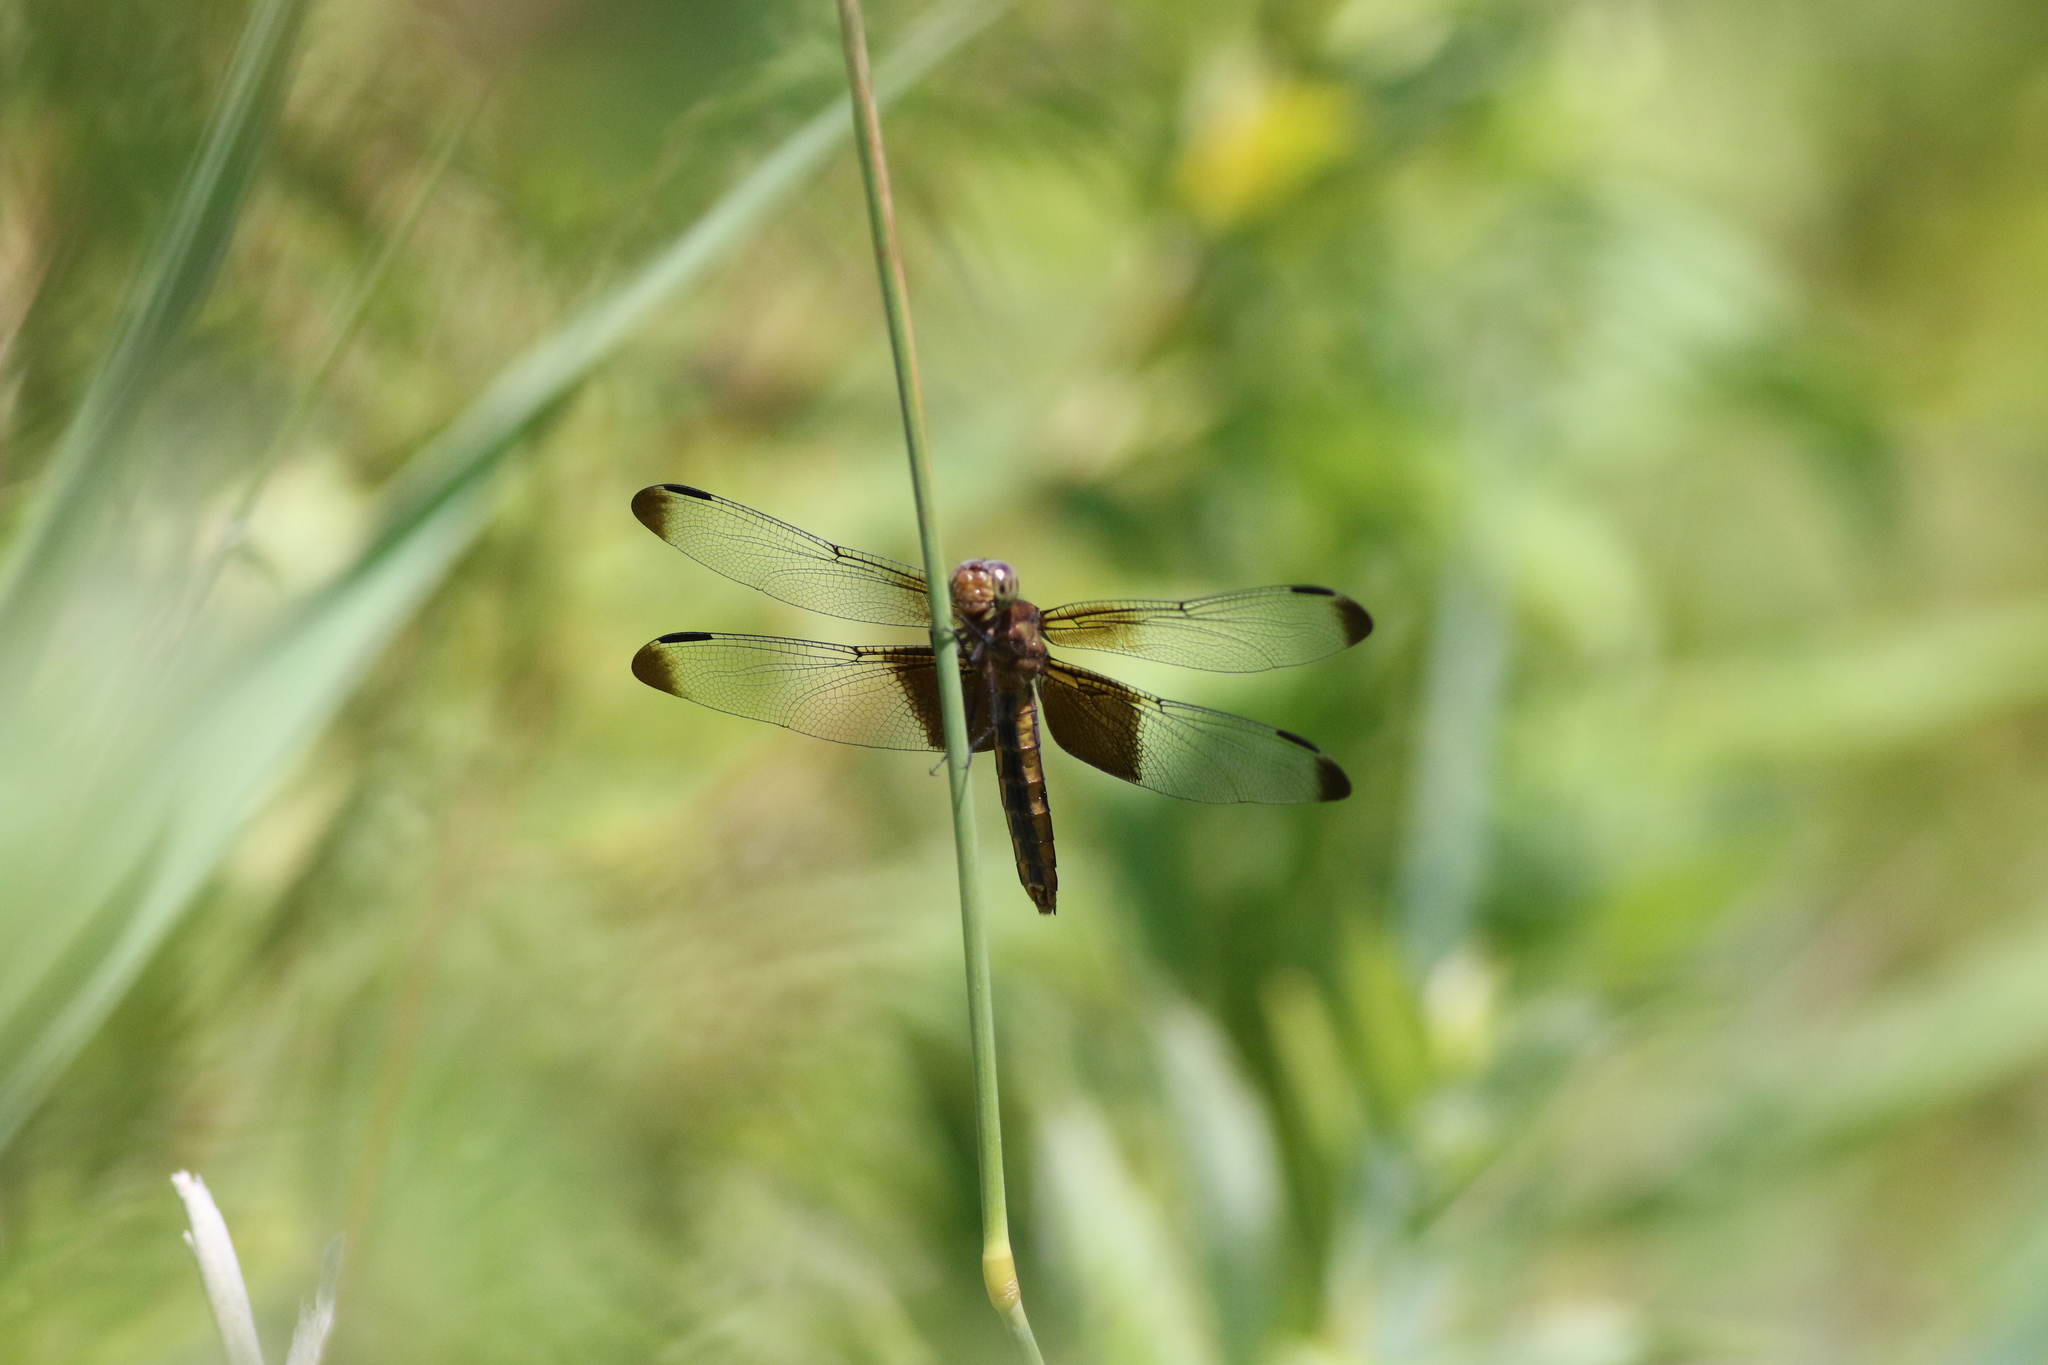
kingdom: Animalia
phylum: Arthropoda
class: Insecta
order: Odonata
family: Libellulidae
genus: Libellula
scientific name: Libellula luctuosa
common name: Widow skimmer
